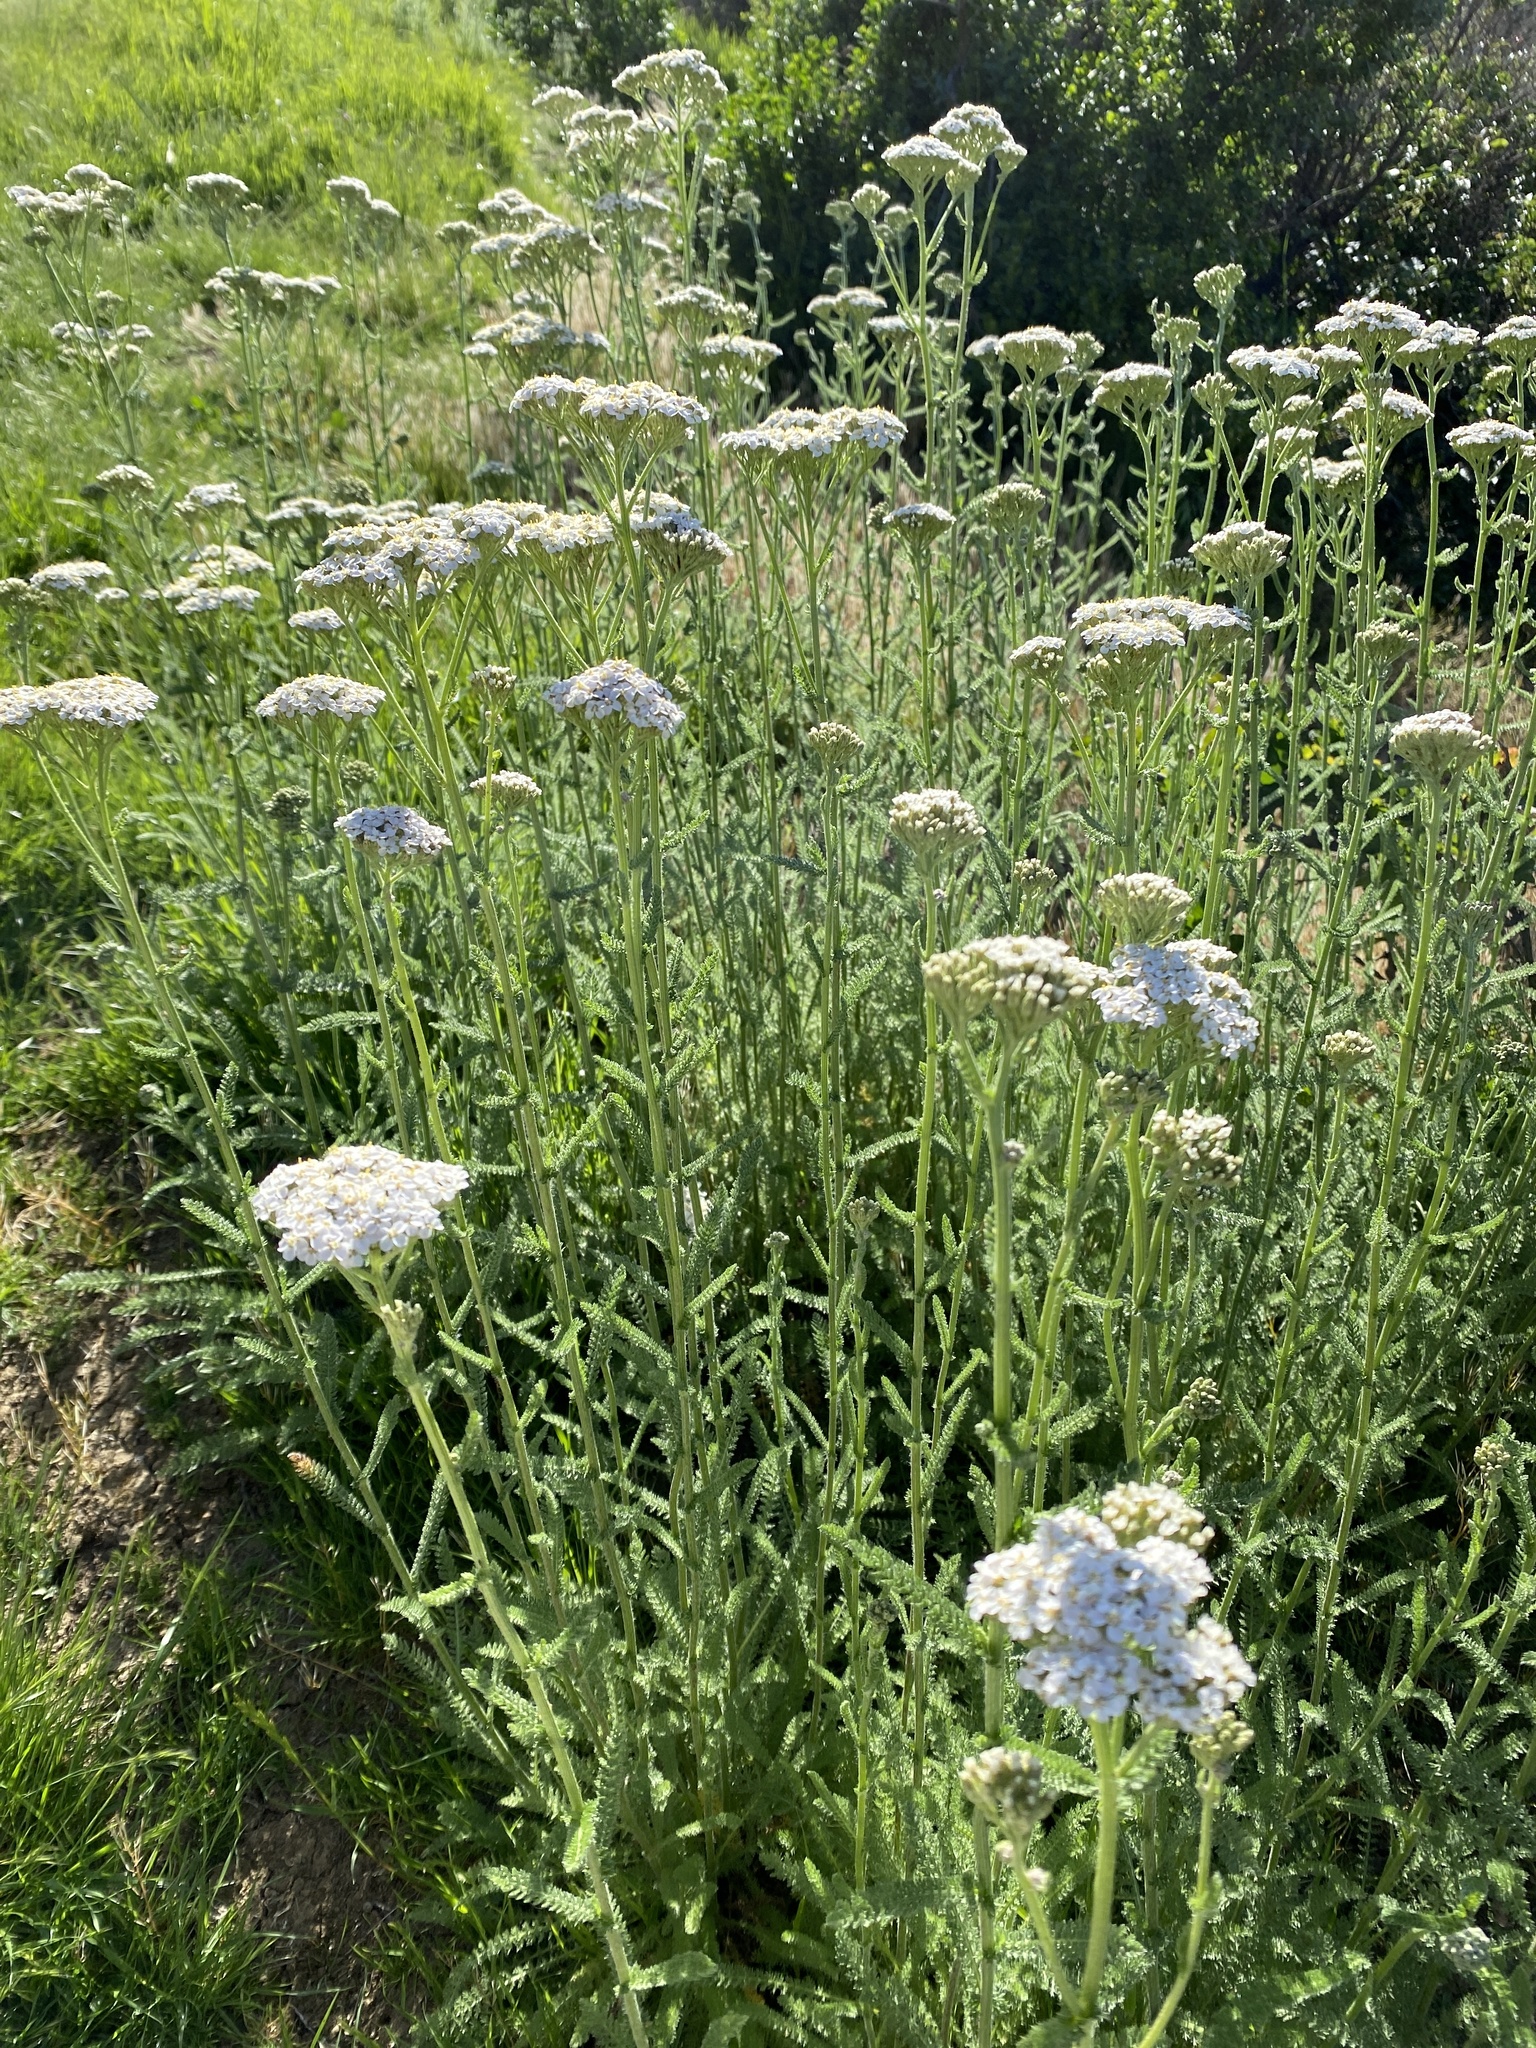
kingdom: Plantae
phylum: Tracheophyta
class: Magnoliopsida
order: Asterales
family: Asteraceae
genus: Achillea
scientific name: Achillea millefolium
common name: Yarrow
